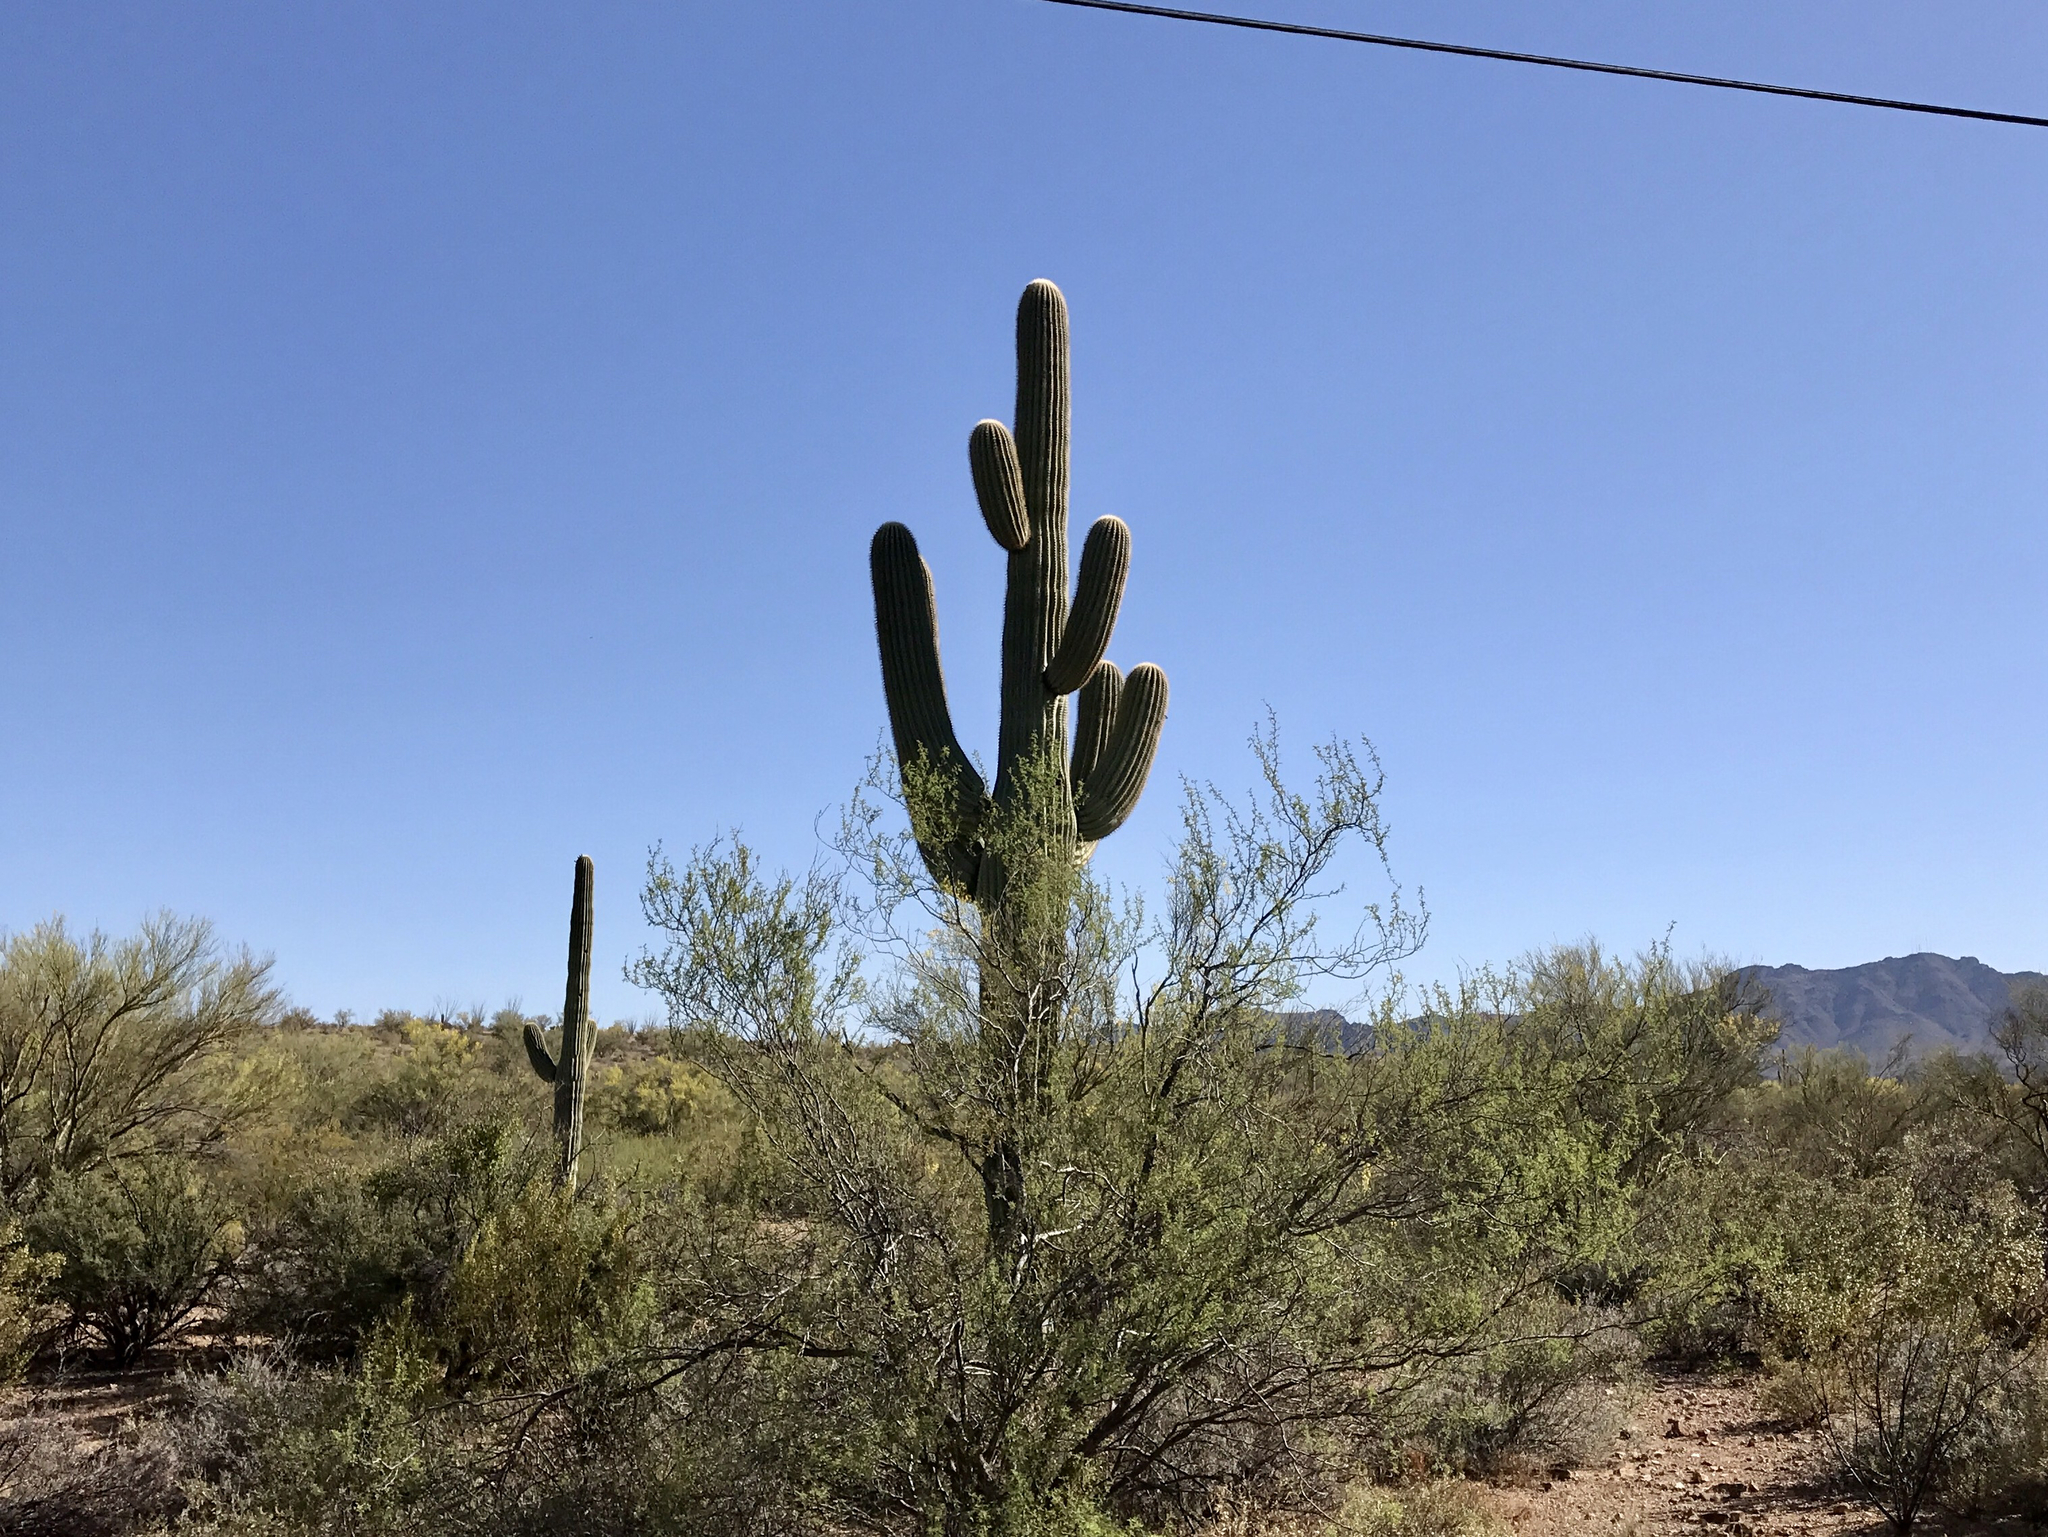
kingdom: Plantae
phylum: Tracheophyta
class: Magnoliopsida
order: Caryophyllales
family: Cactaceae
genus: Carnegiea
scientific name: Carnegiea gigantea
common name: Saguaro
